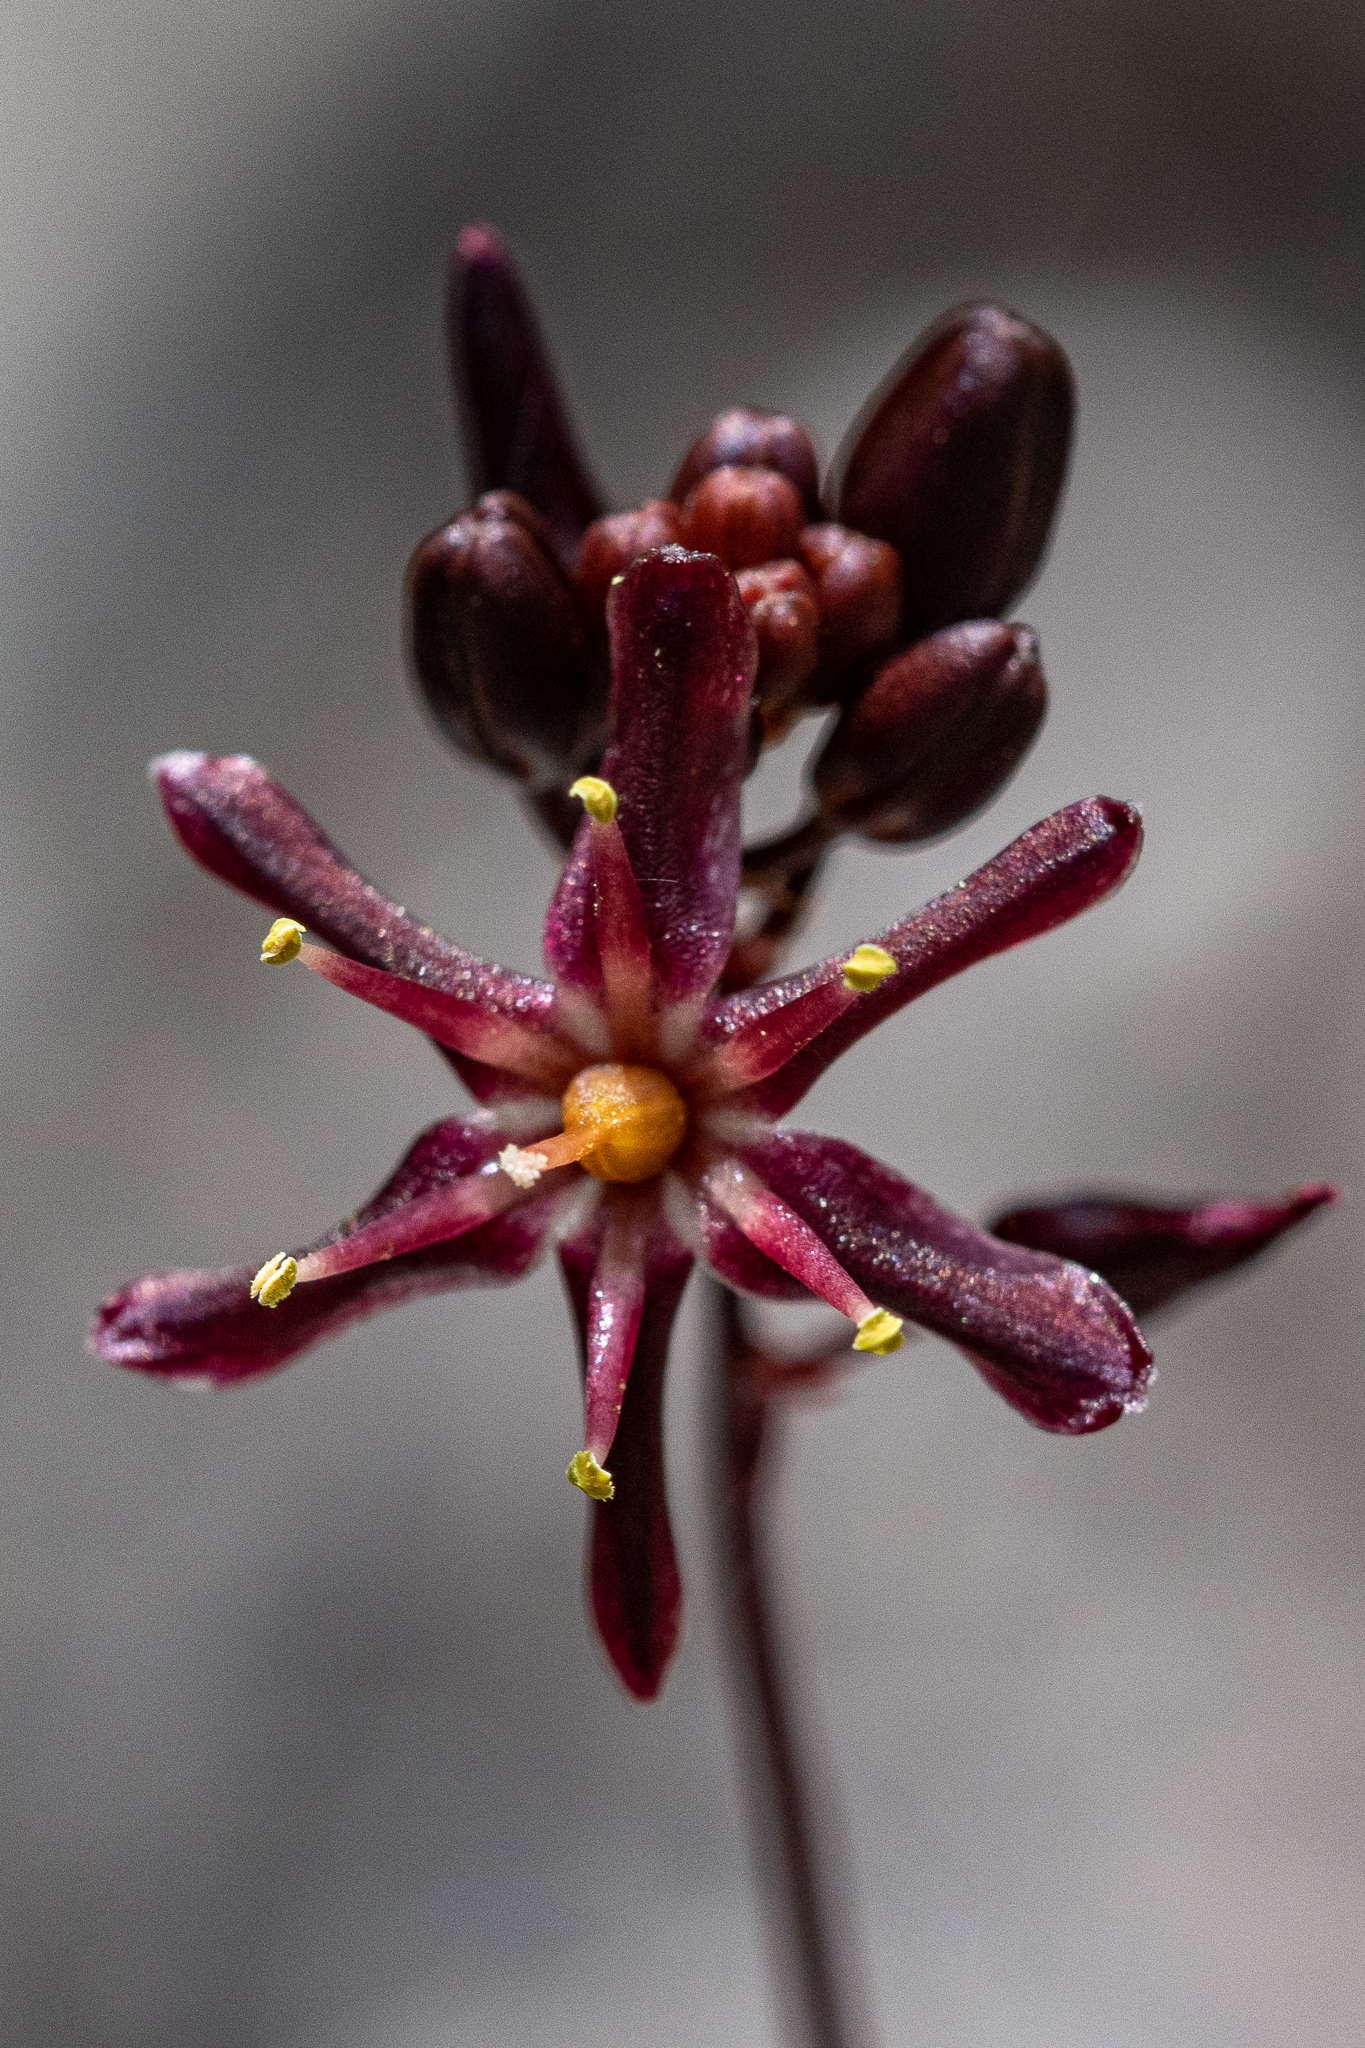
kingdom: Plantae
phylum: Tracheophyta
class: Liliopsida
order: Asparagales
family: Asparagaceae
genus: Drimia
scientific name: Drimia salteri
